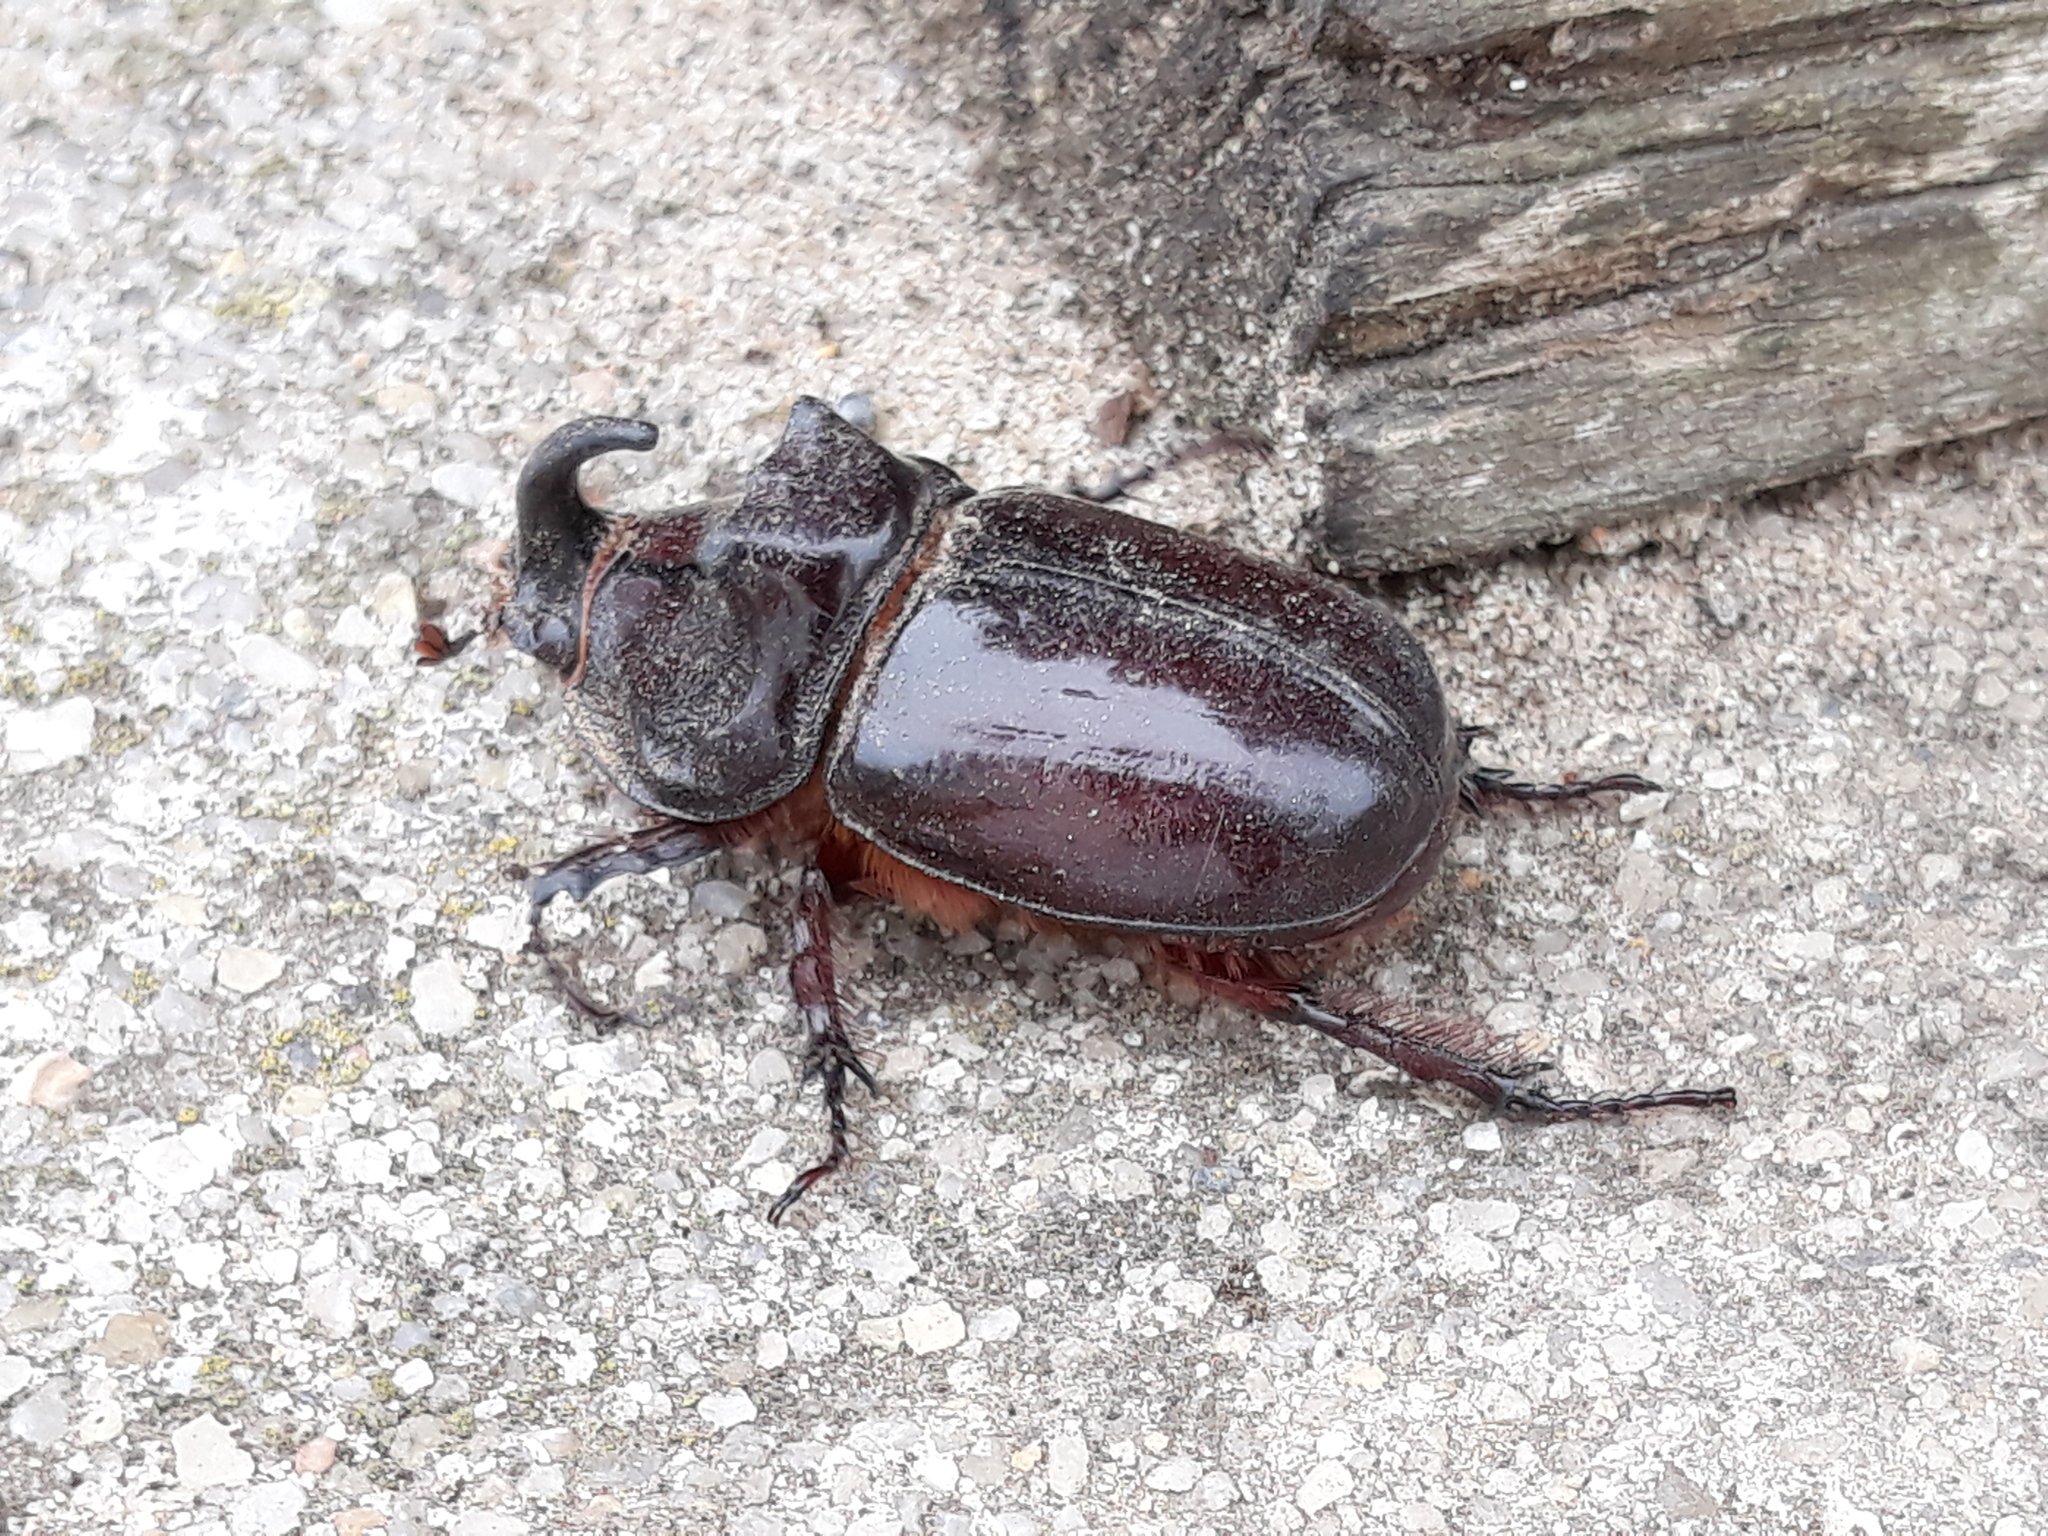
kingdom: Animalia
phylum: Arthropoda
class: Insecta
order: Coleoptera
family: Scarabaeidae
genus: Oryctes
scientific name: Oryctes nasicornis
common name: European rhinoceros beetle
